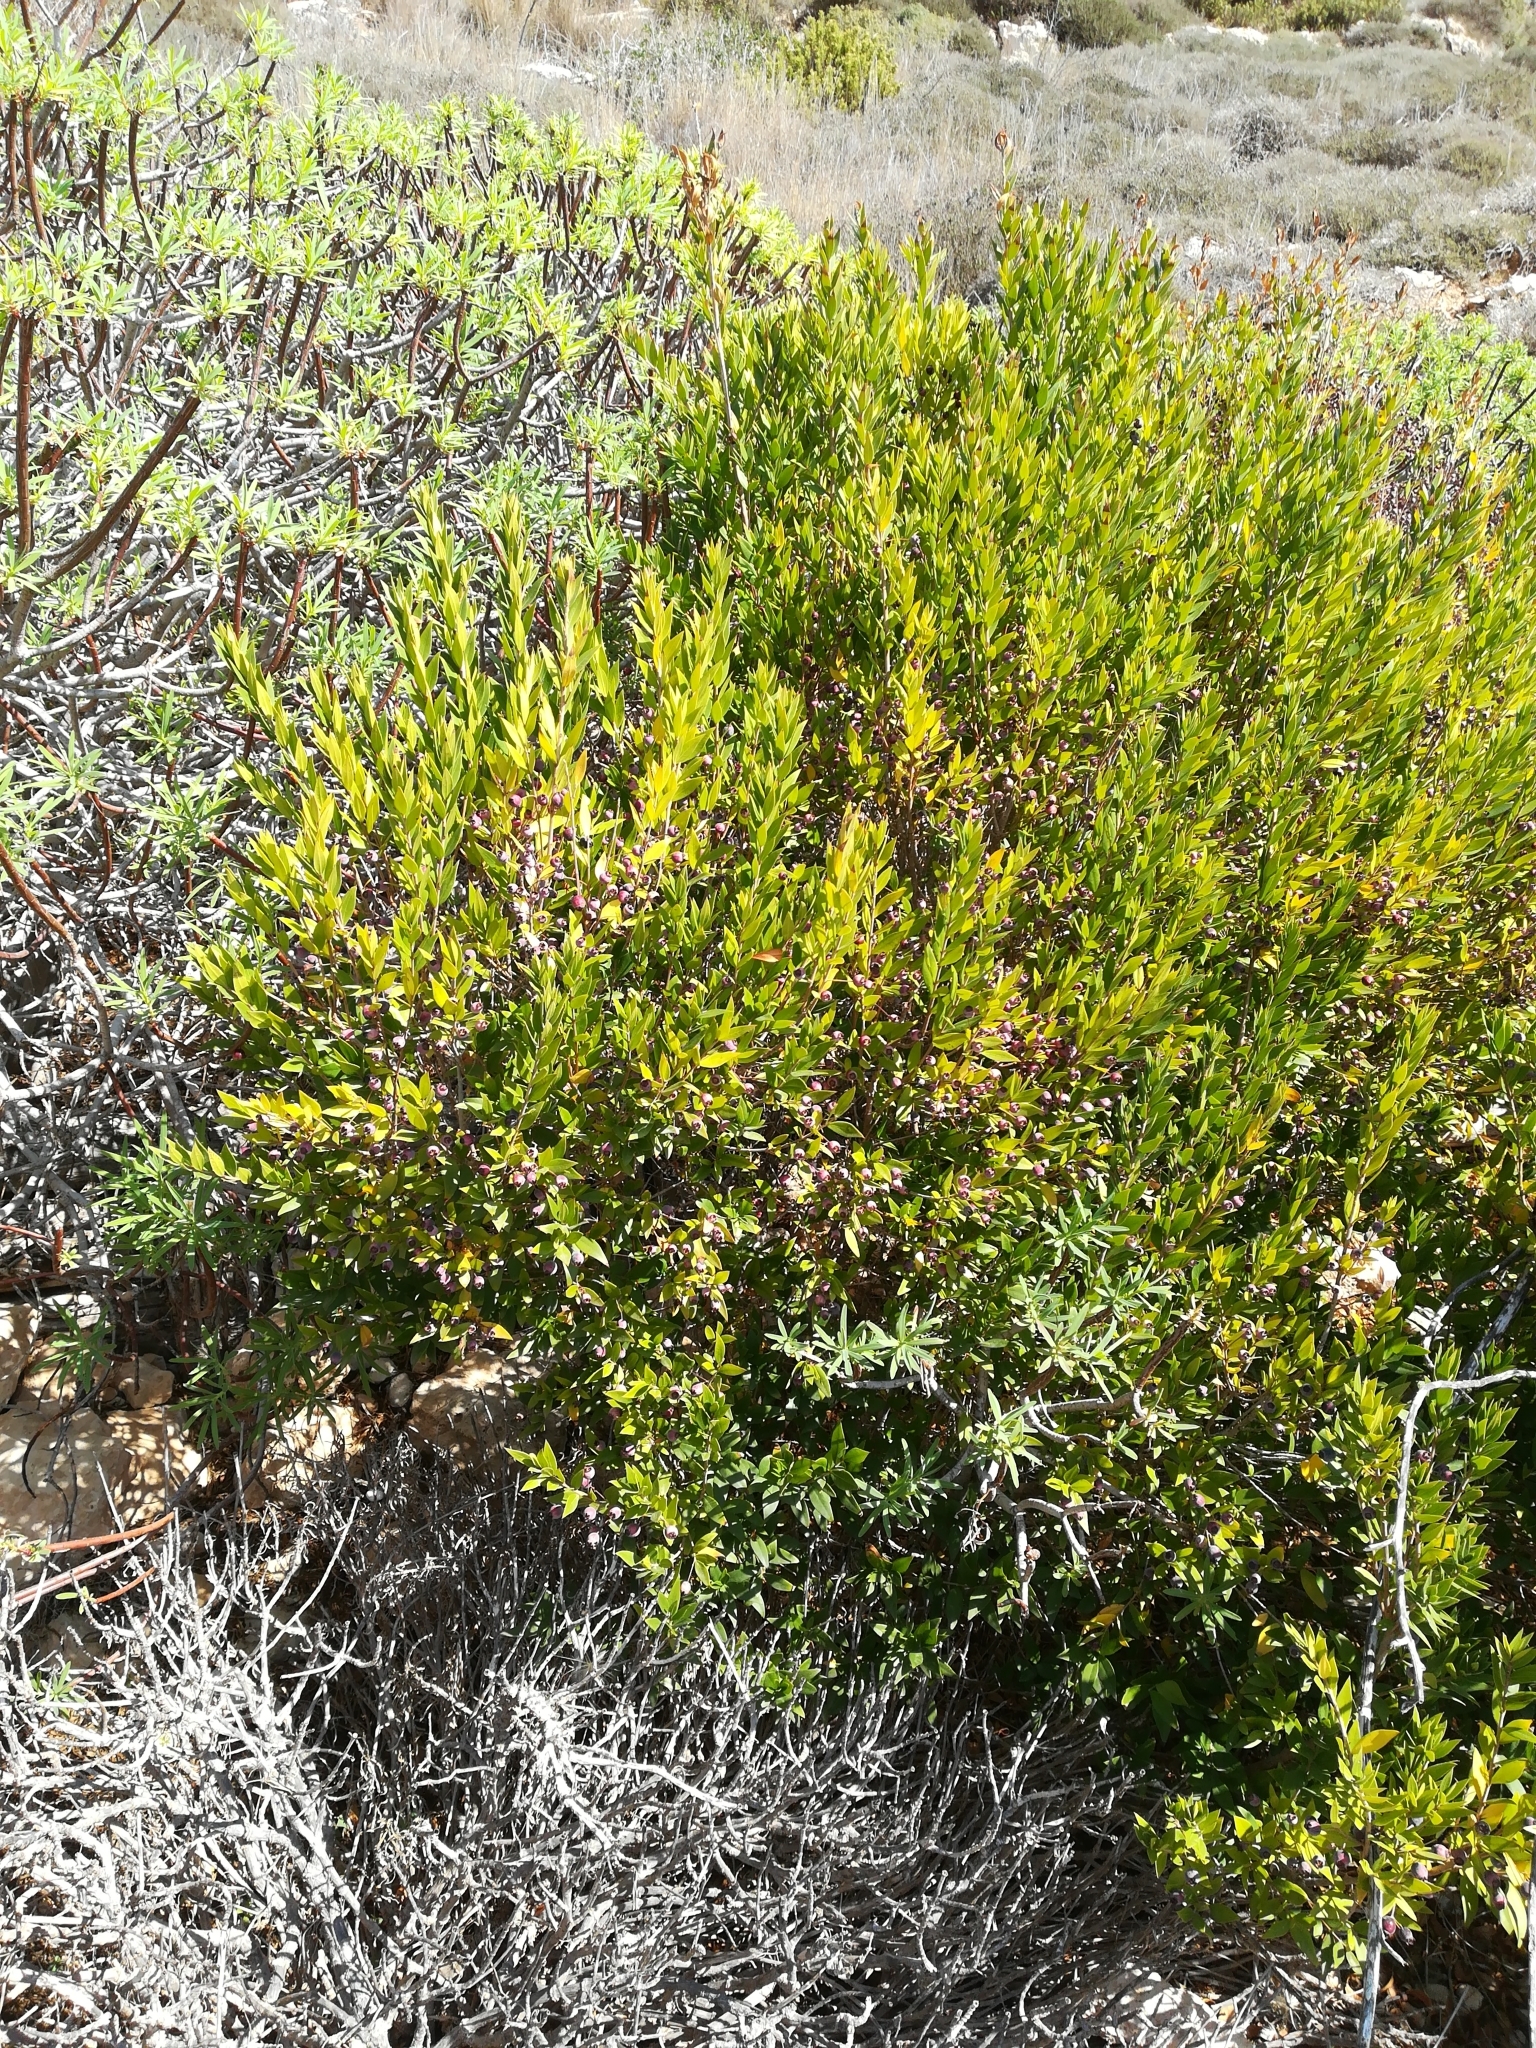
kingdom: Plantae
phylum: Tracheophyta
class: Magnoliopsida
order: Myrtales
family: Myrtaceae
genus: Myrtus
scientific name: Myrtus communis
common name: Myrtle
